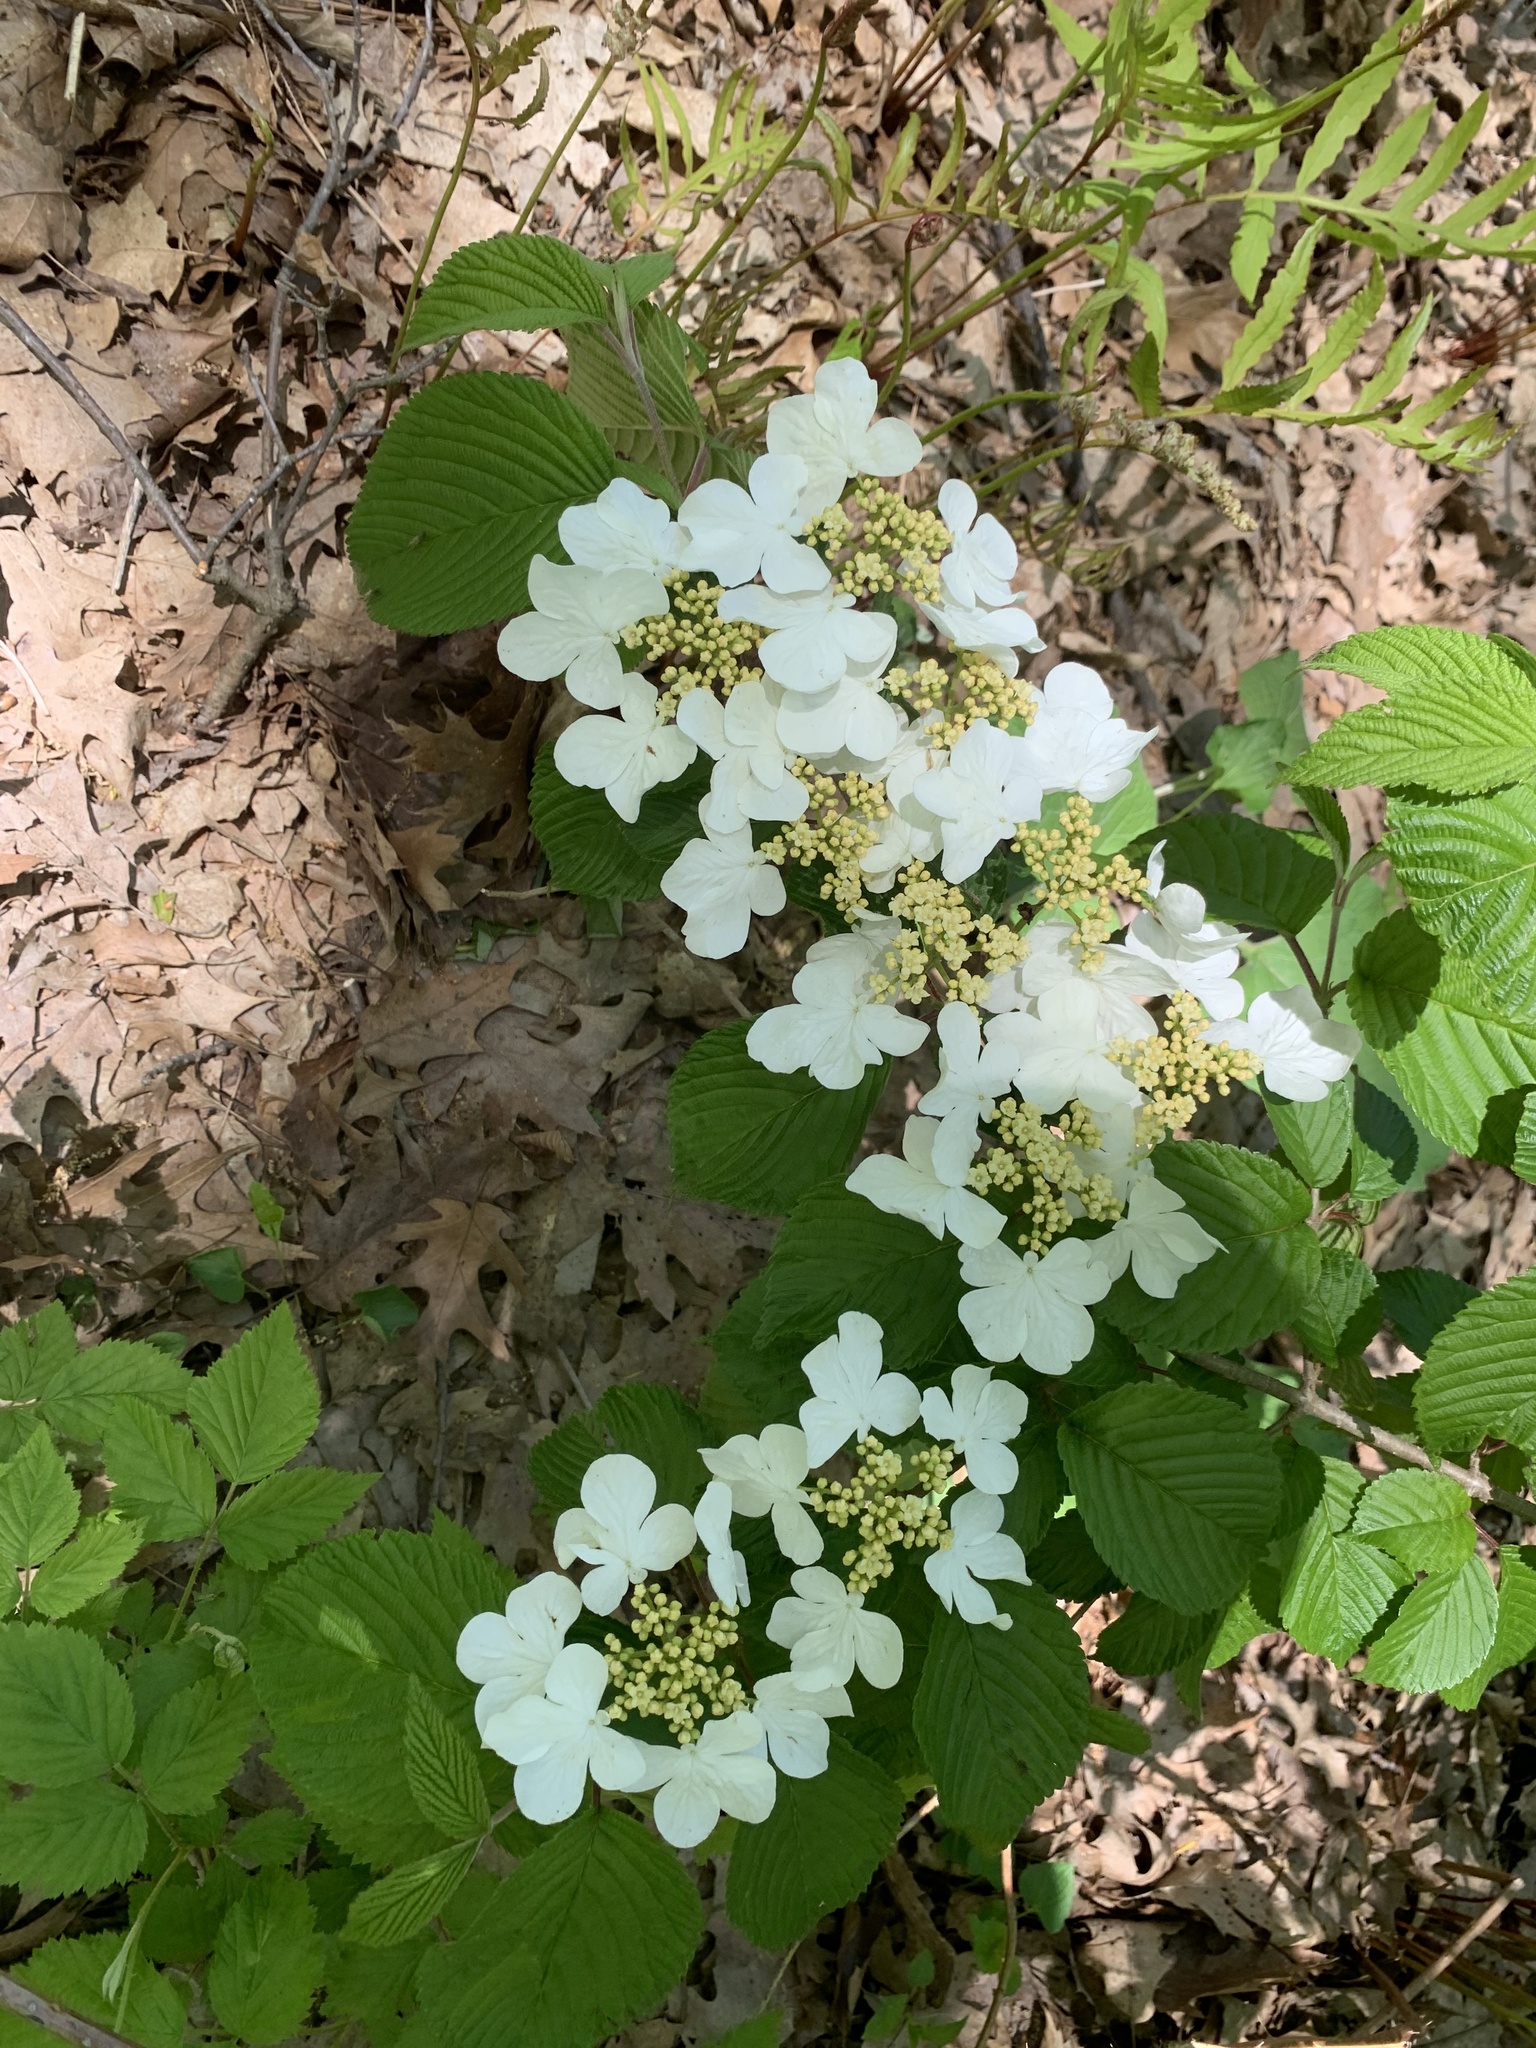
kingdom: Plantae
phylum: Tracheophyta
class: Magnoliopsida
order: Dipsacales
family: Viburnaceae
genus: Viburnum
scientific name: Viburnum plicatum
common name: Japanese snowball
